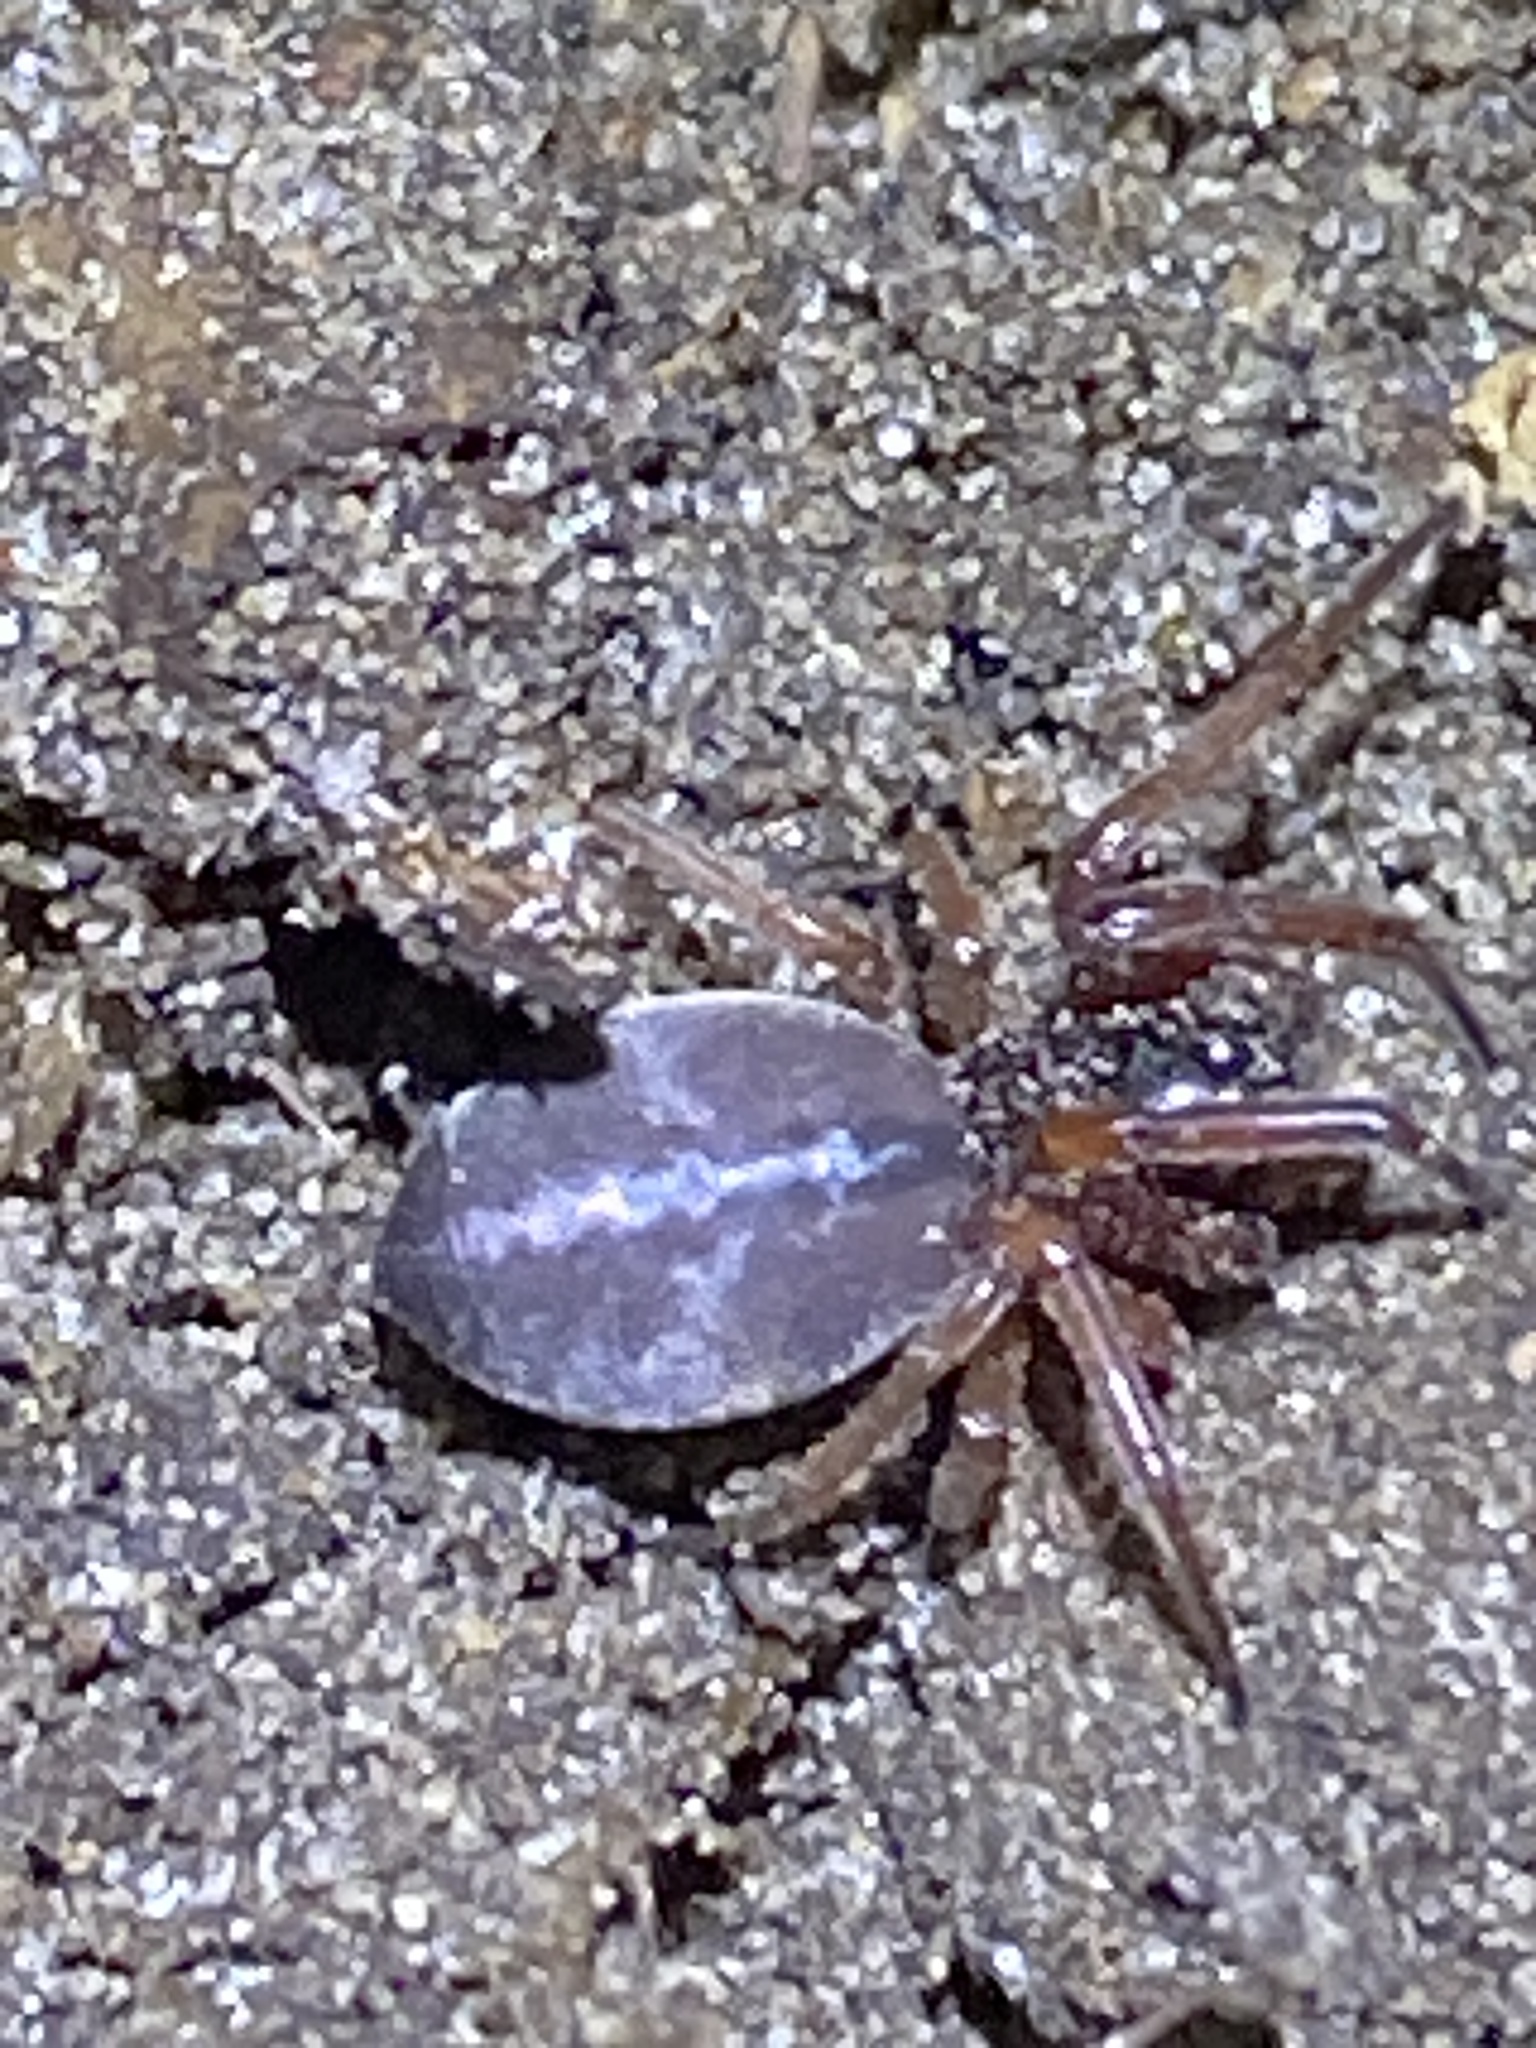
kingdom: Animalia
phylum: Arthropoda
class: Arachnida
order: Araneae
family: Trachelidae
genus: Trachelas
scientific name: Trachelas tranquillus
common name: Broad-faced sac spider
